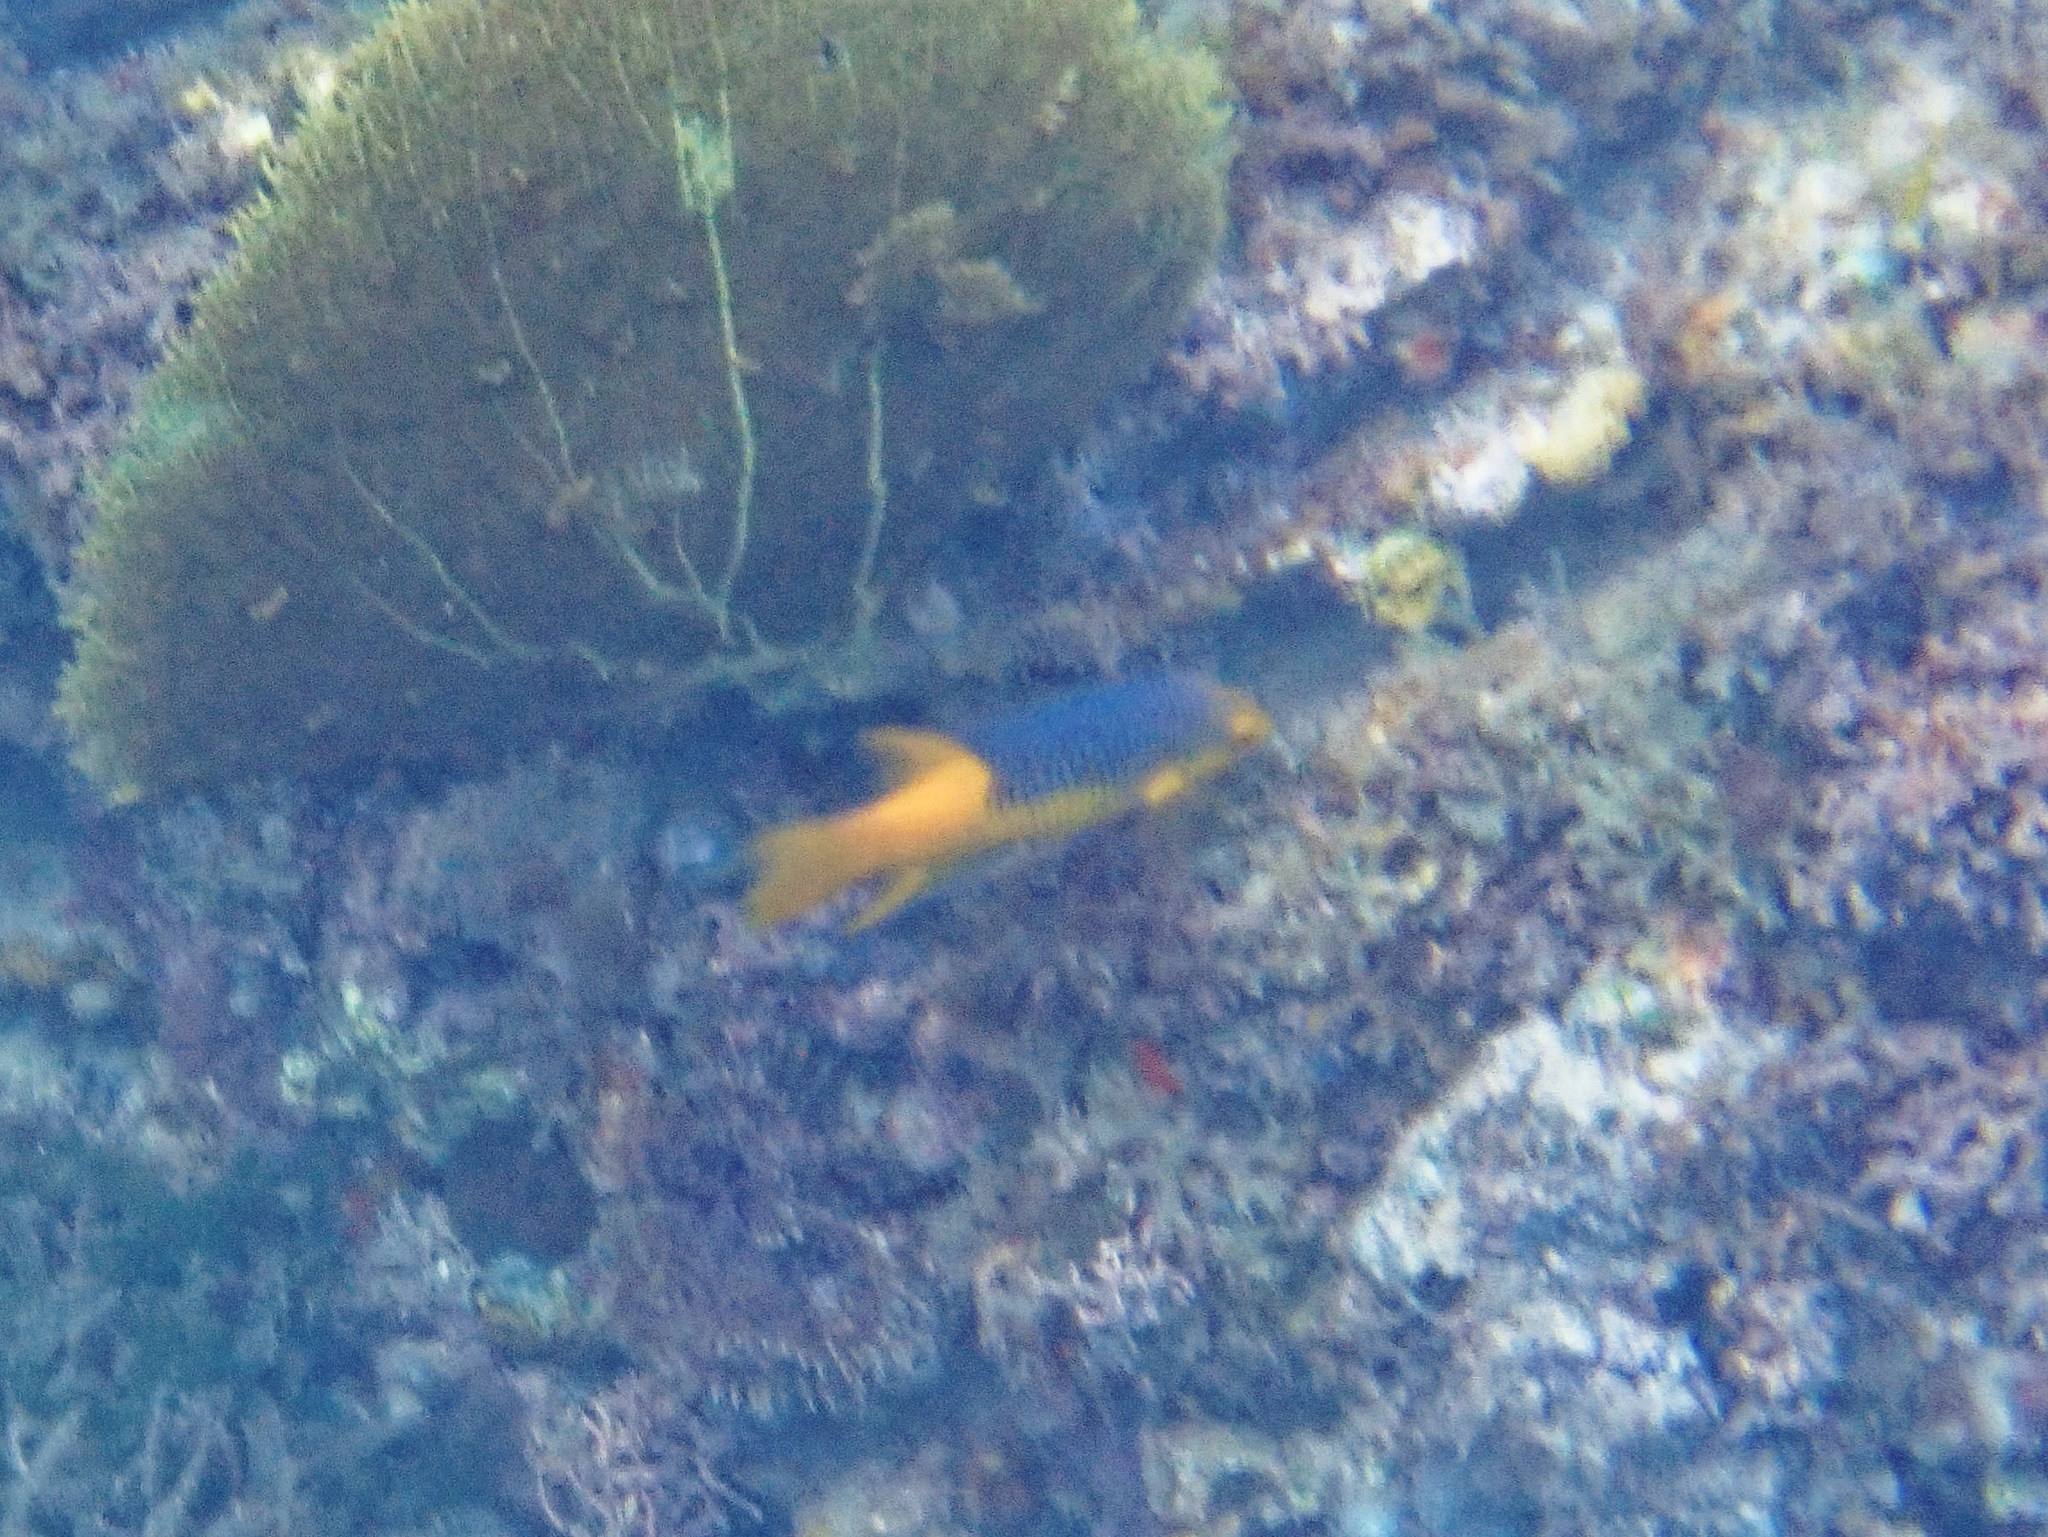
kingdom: Animalia
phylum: Chordata
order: Perciformes
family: Labridae
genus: Bodianus
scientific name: Bodianus rufus
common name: Spanish hogfish
